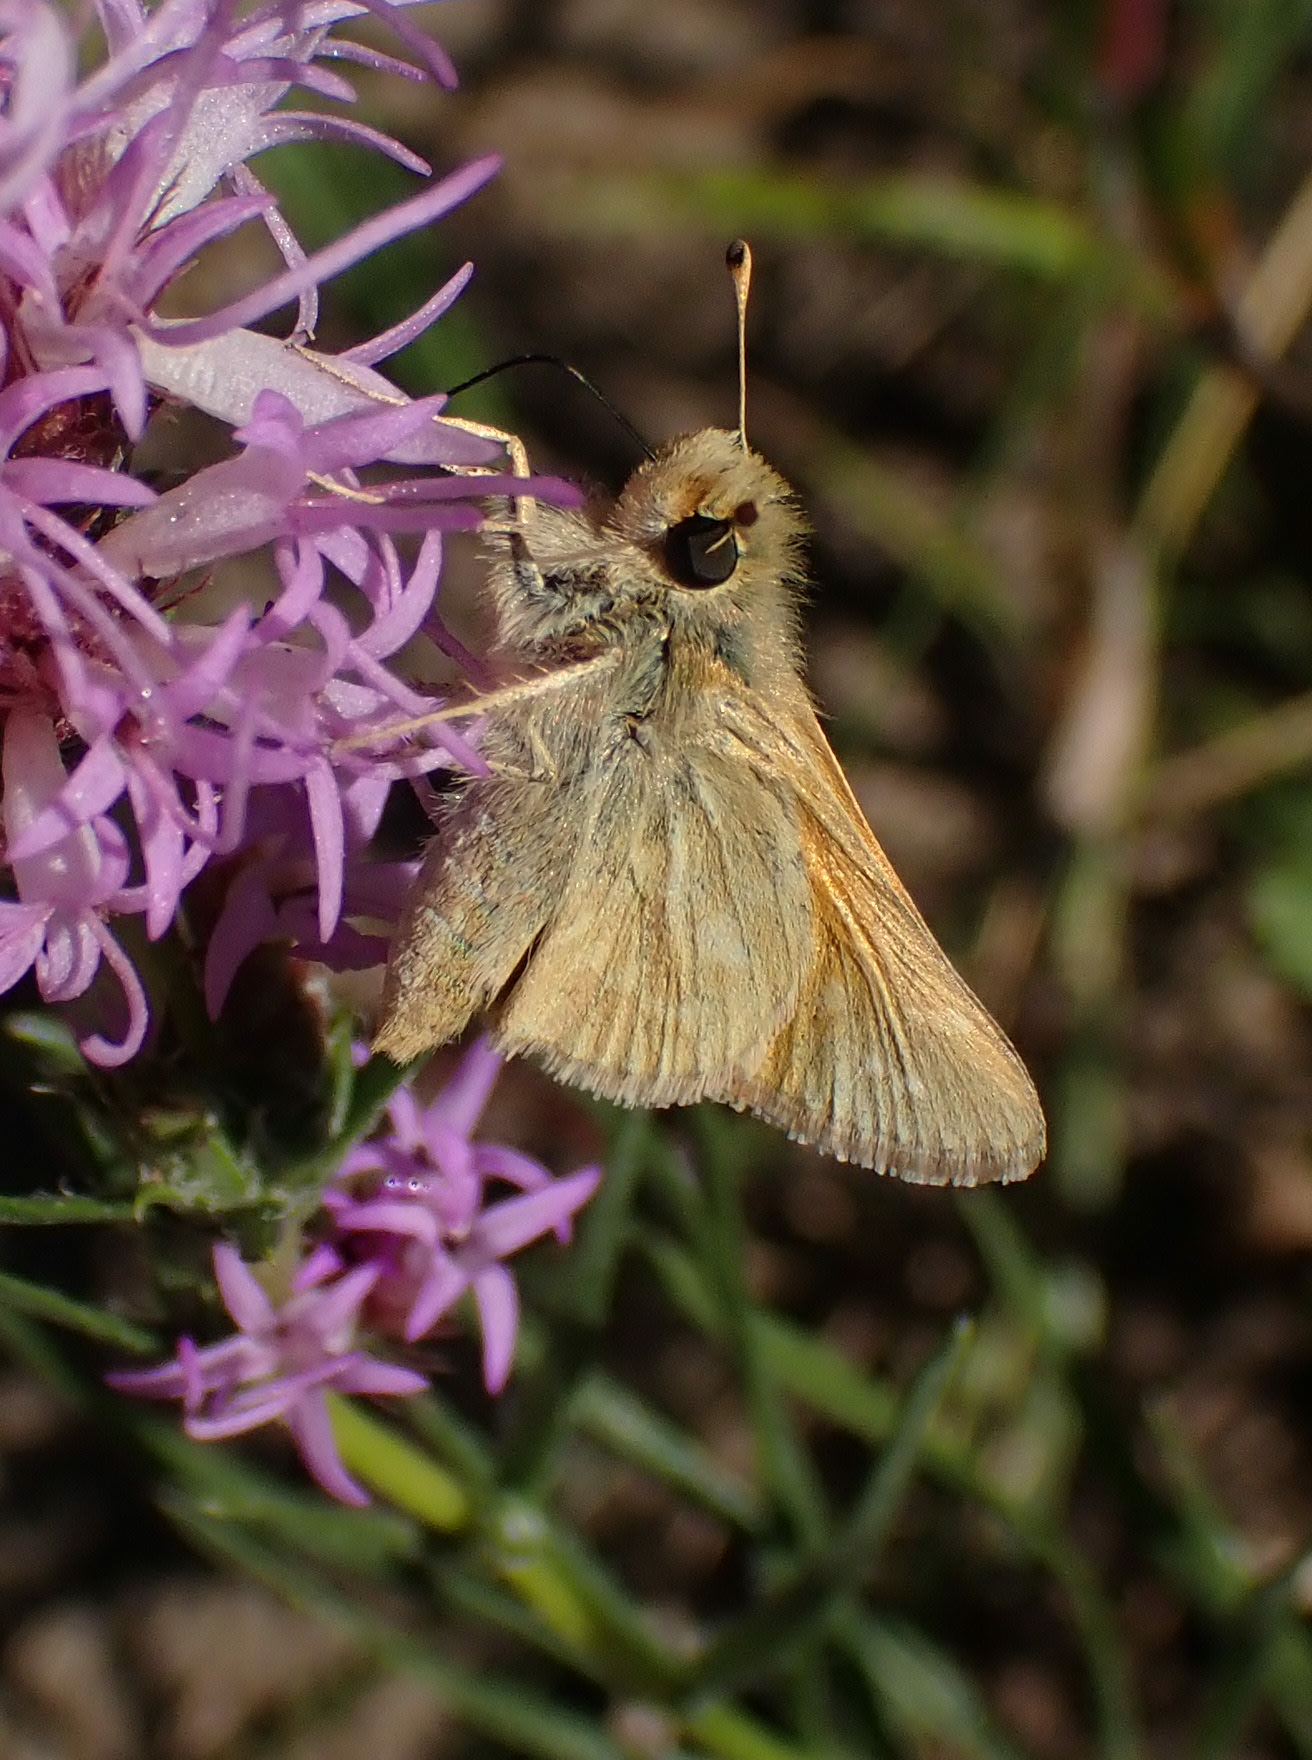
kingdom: Animalia
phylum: Arthropoda
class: Insecta
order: Lepidoptera
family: Hesperiidae
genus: Hesperia
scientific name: Hesperia comma
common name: Common branded skipper
